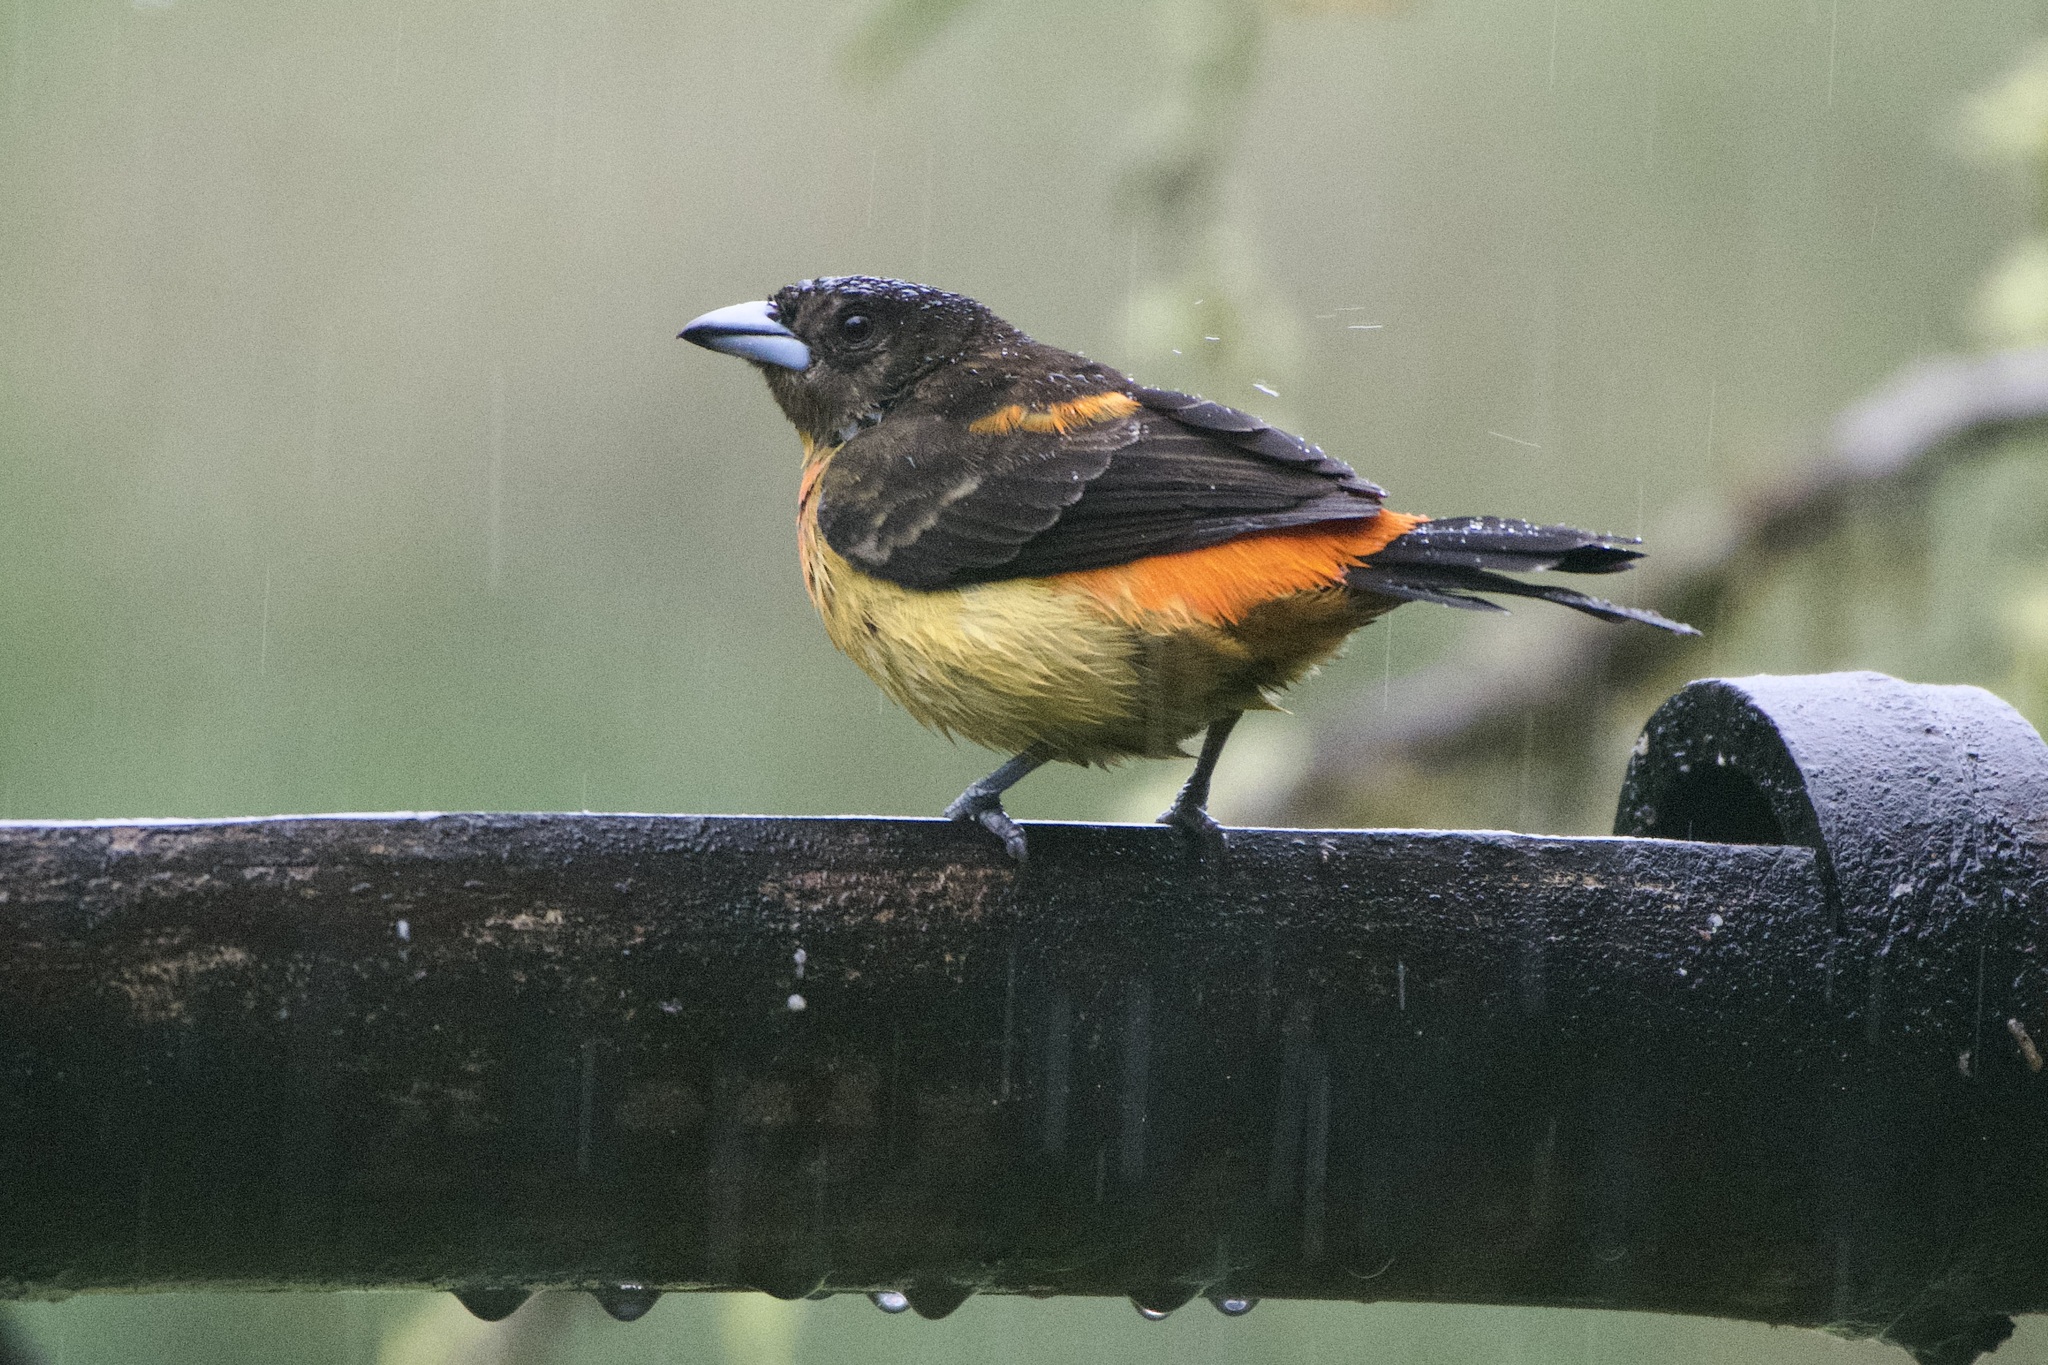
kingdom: Animalia
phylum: Chordata
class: Aves
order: Passeriformes
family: Thraupidae
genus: Ramphocelus
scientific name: Ramphocelus flammigerus
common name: Flame-rumped tanager
